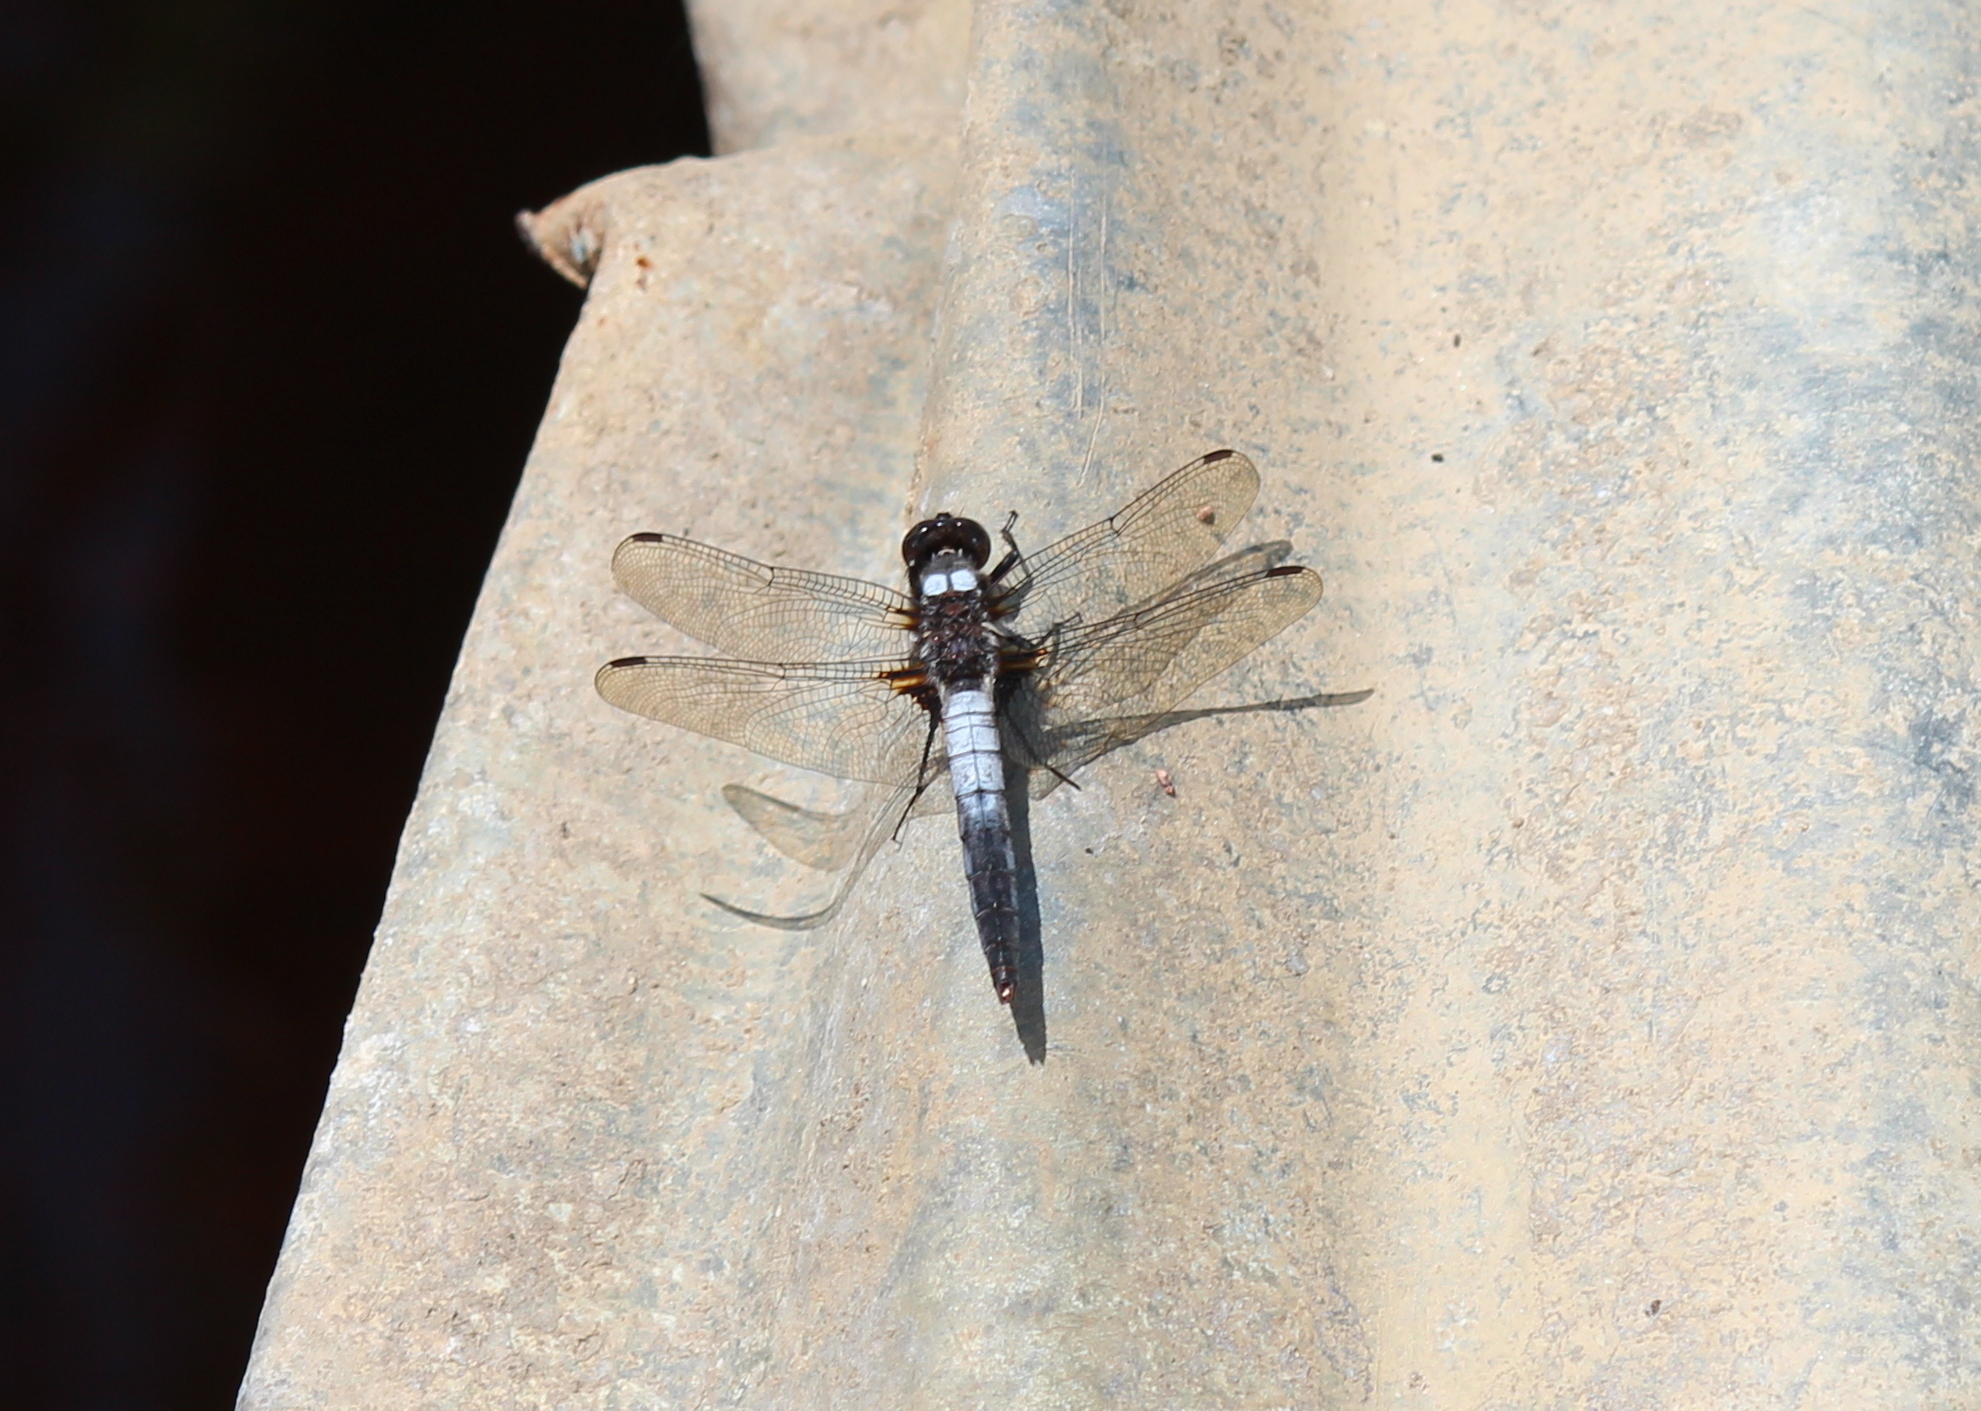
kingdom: Animalia
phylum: Arthropoda
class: Insecta
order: Odonata
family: Libellulidae
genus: Ladona
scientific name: Ladona julia
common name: Chalk-fronted corporal
